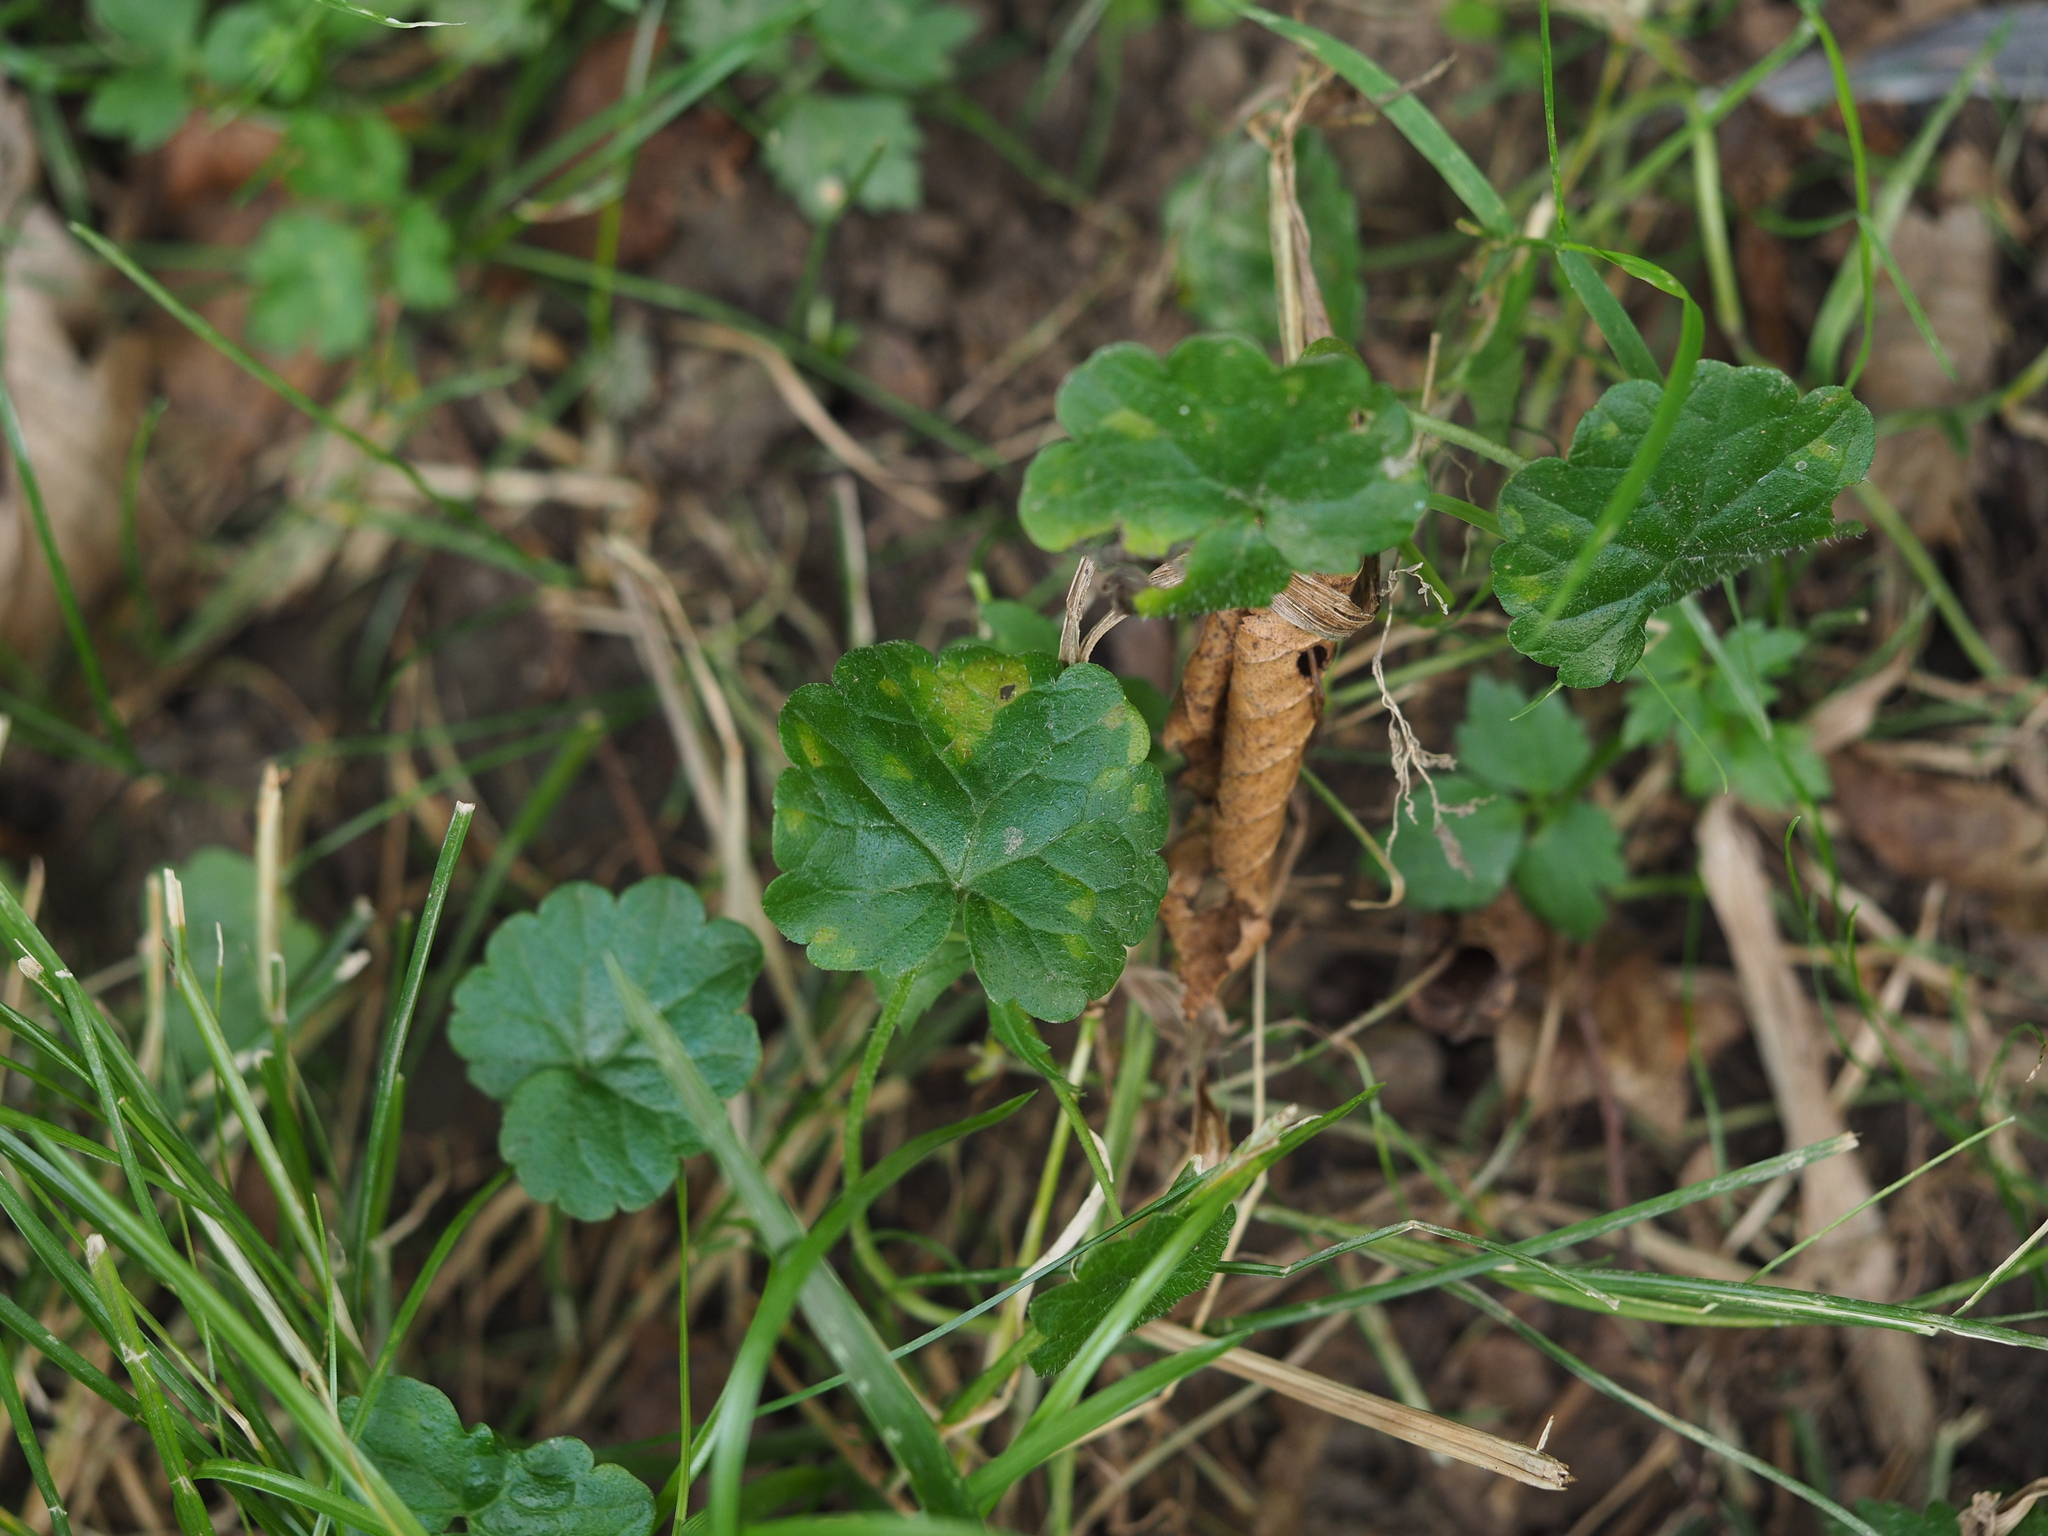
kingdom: Plantae
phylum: Tracheophyta
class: Magnoliopsida
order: Lamiales
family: Lamiaceae
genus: Glechoma
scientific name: Glechoma hederacea
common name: Ground ivy
